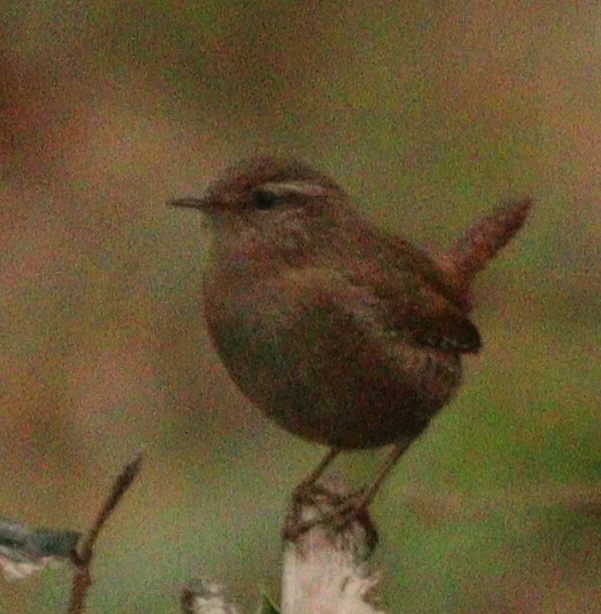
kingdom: Animalia
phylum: Chordata
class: Aves
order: Passeriformes
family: Troglodytidae
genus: Troglodytes
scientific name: Troglodytes troglodytes
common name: Eurasian wren
